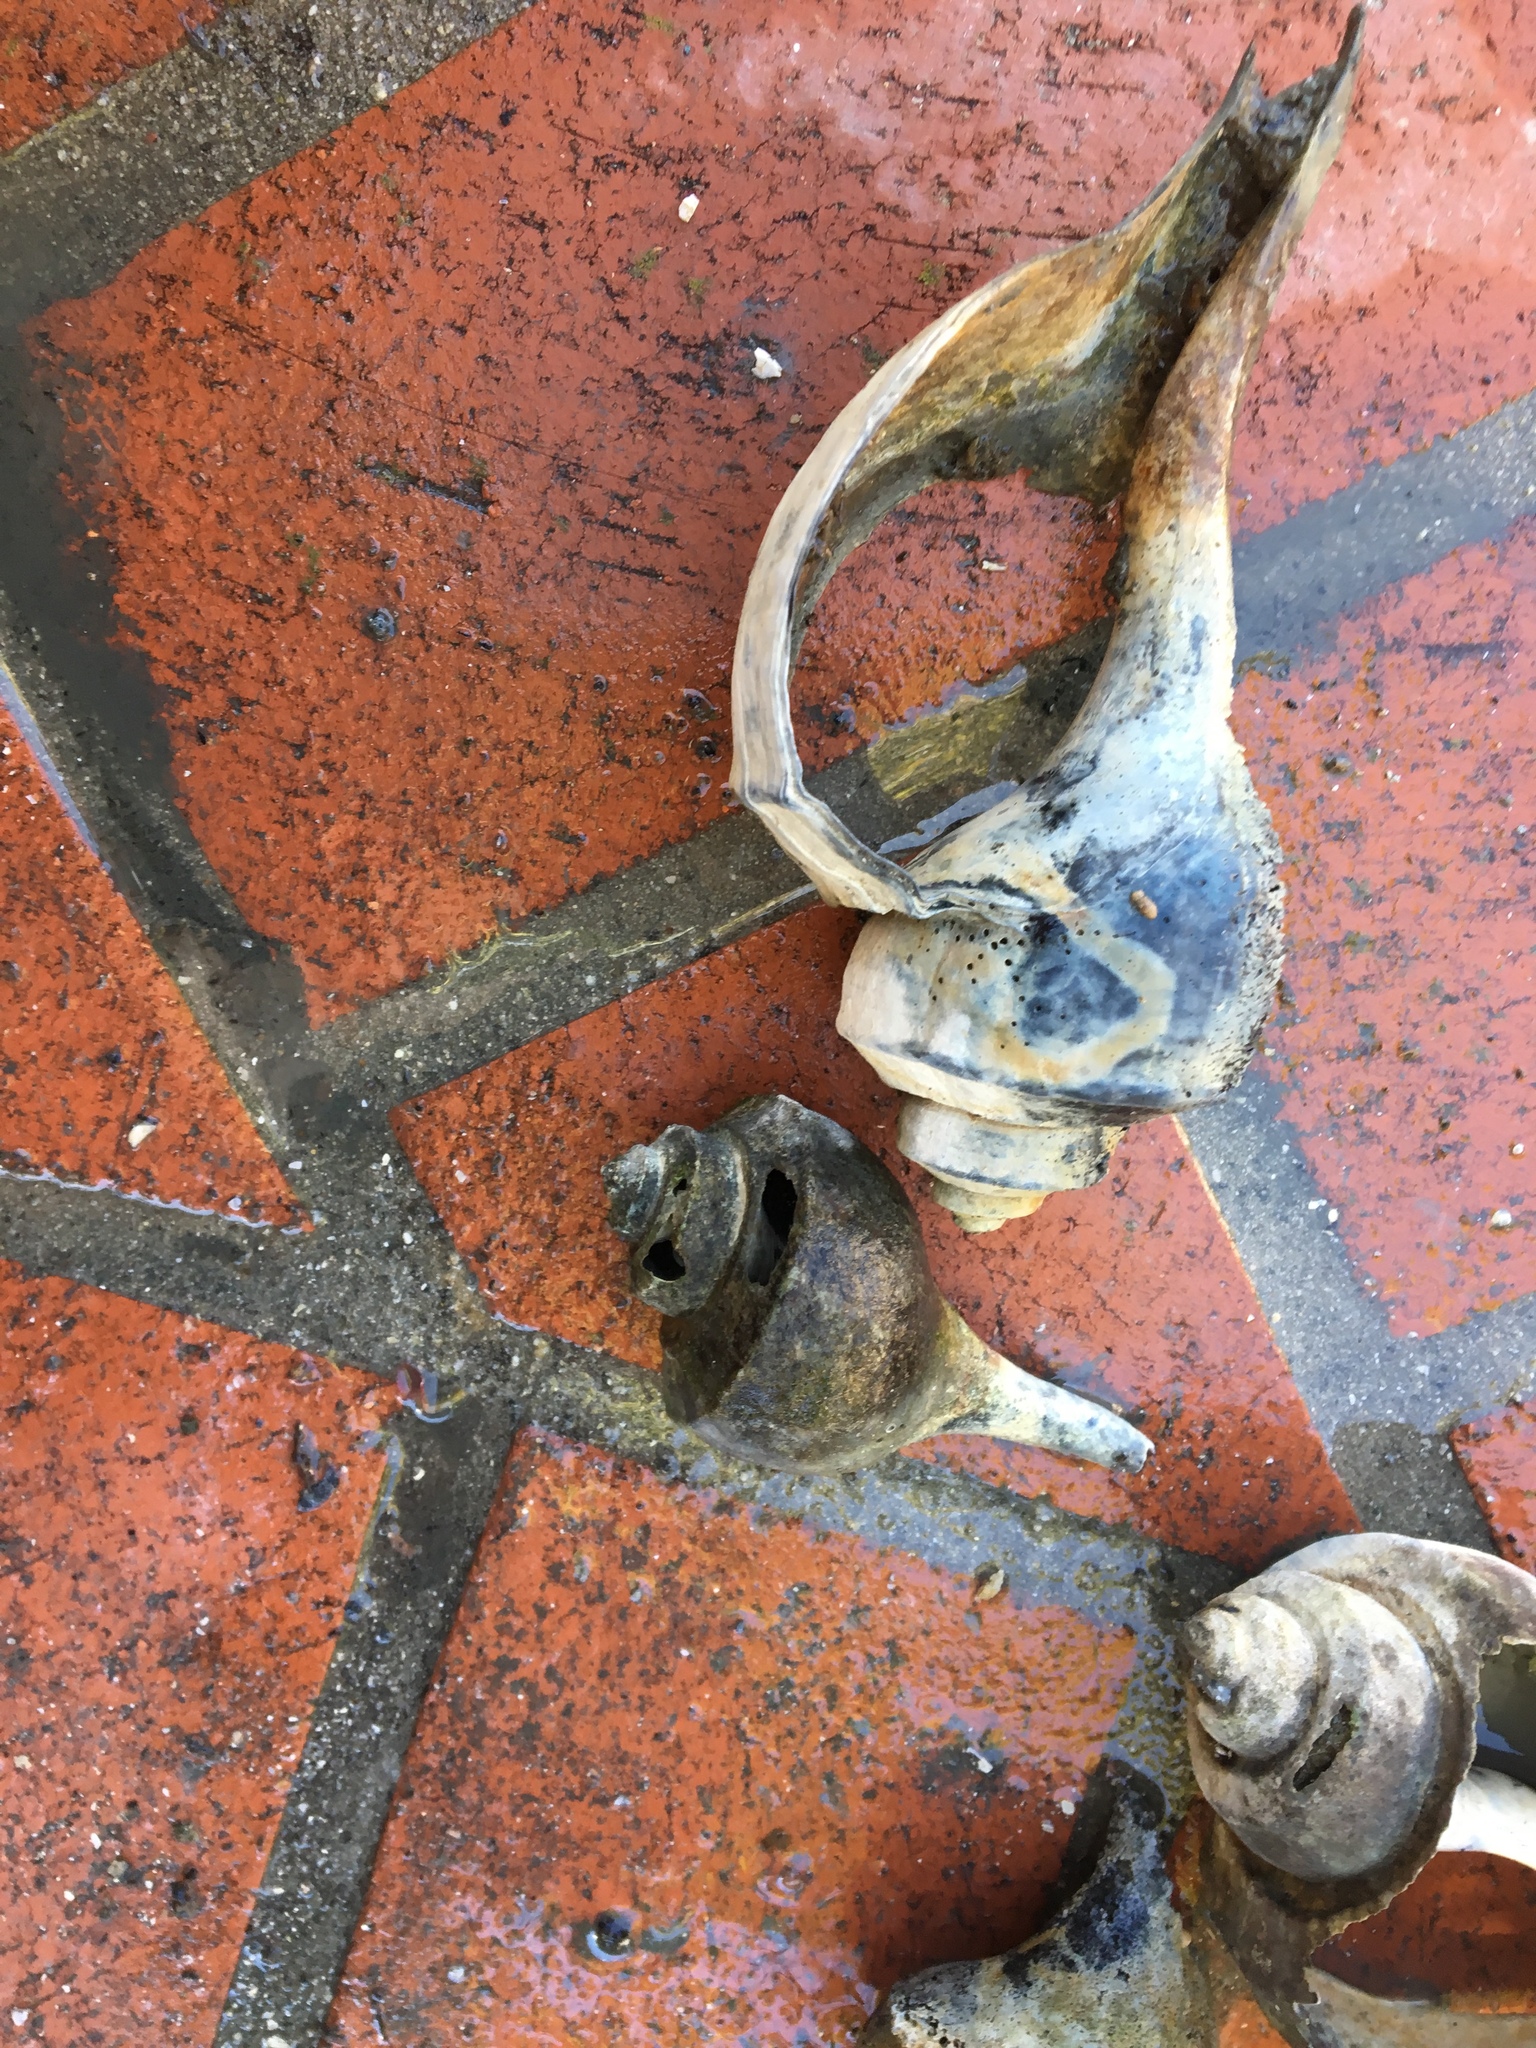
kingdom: Animalia
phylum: Mollusca
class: Gastropoda
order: Neogastropoda
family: Busyconidae
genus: Busycotypus
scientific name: Busycotypus canaliculatus
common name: Channeled whelk
